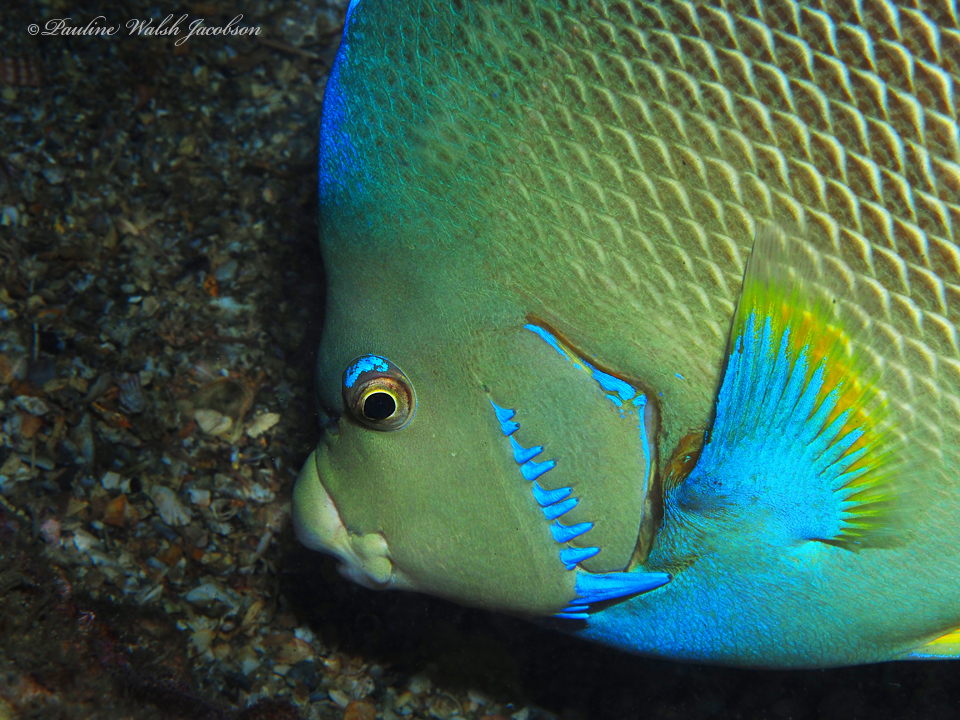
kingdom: Animalia
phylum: Chordata
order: Perciformes
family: Pomacanthidae
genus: Holacanthus
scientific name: Holacanthus bermudensis
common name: Blue angelfish
